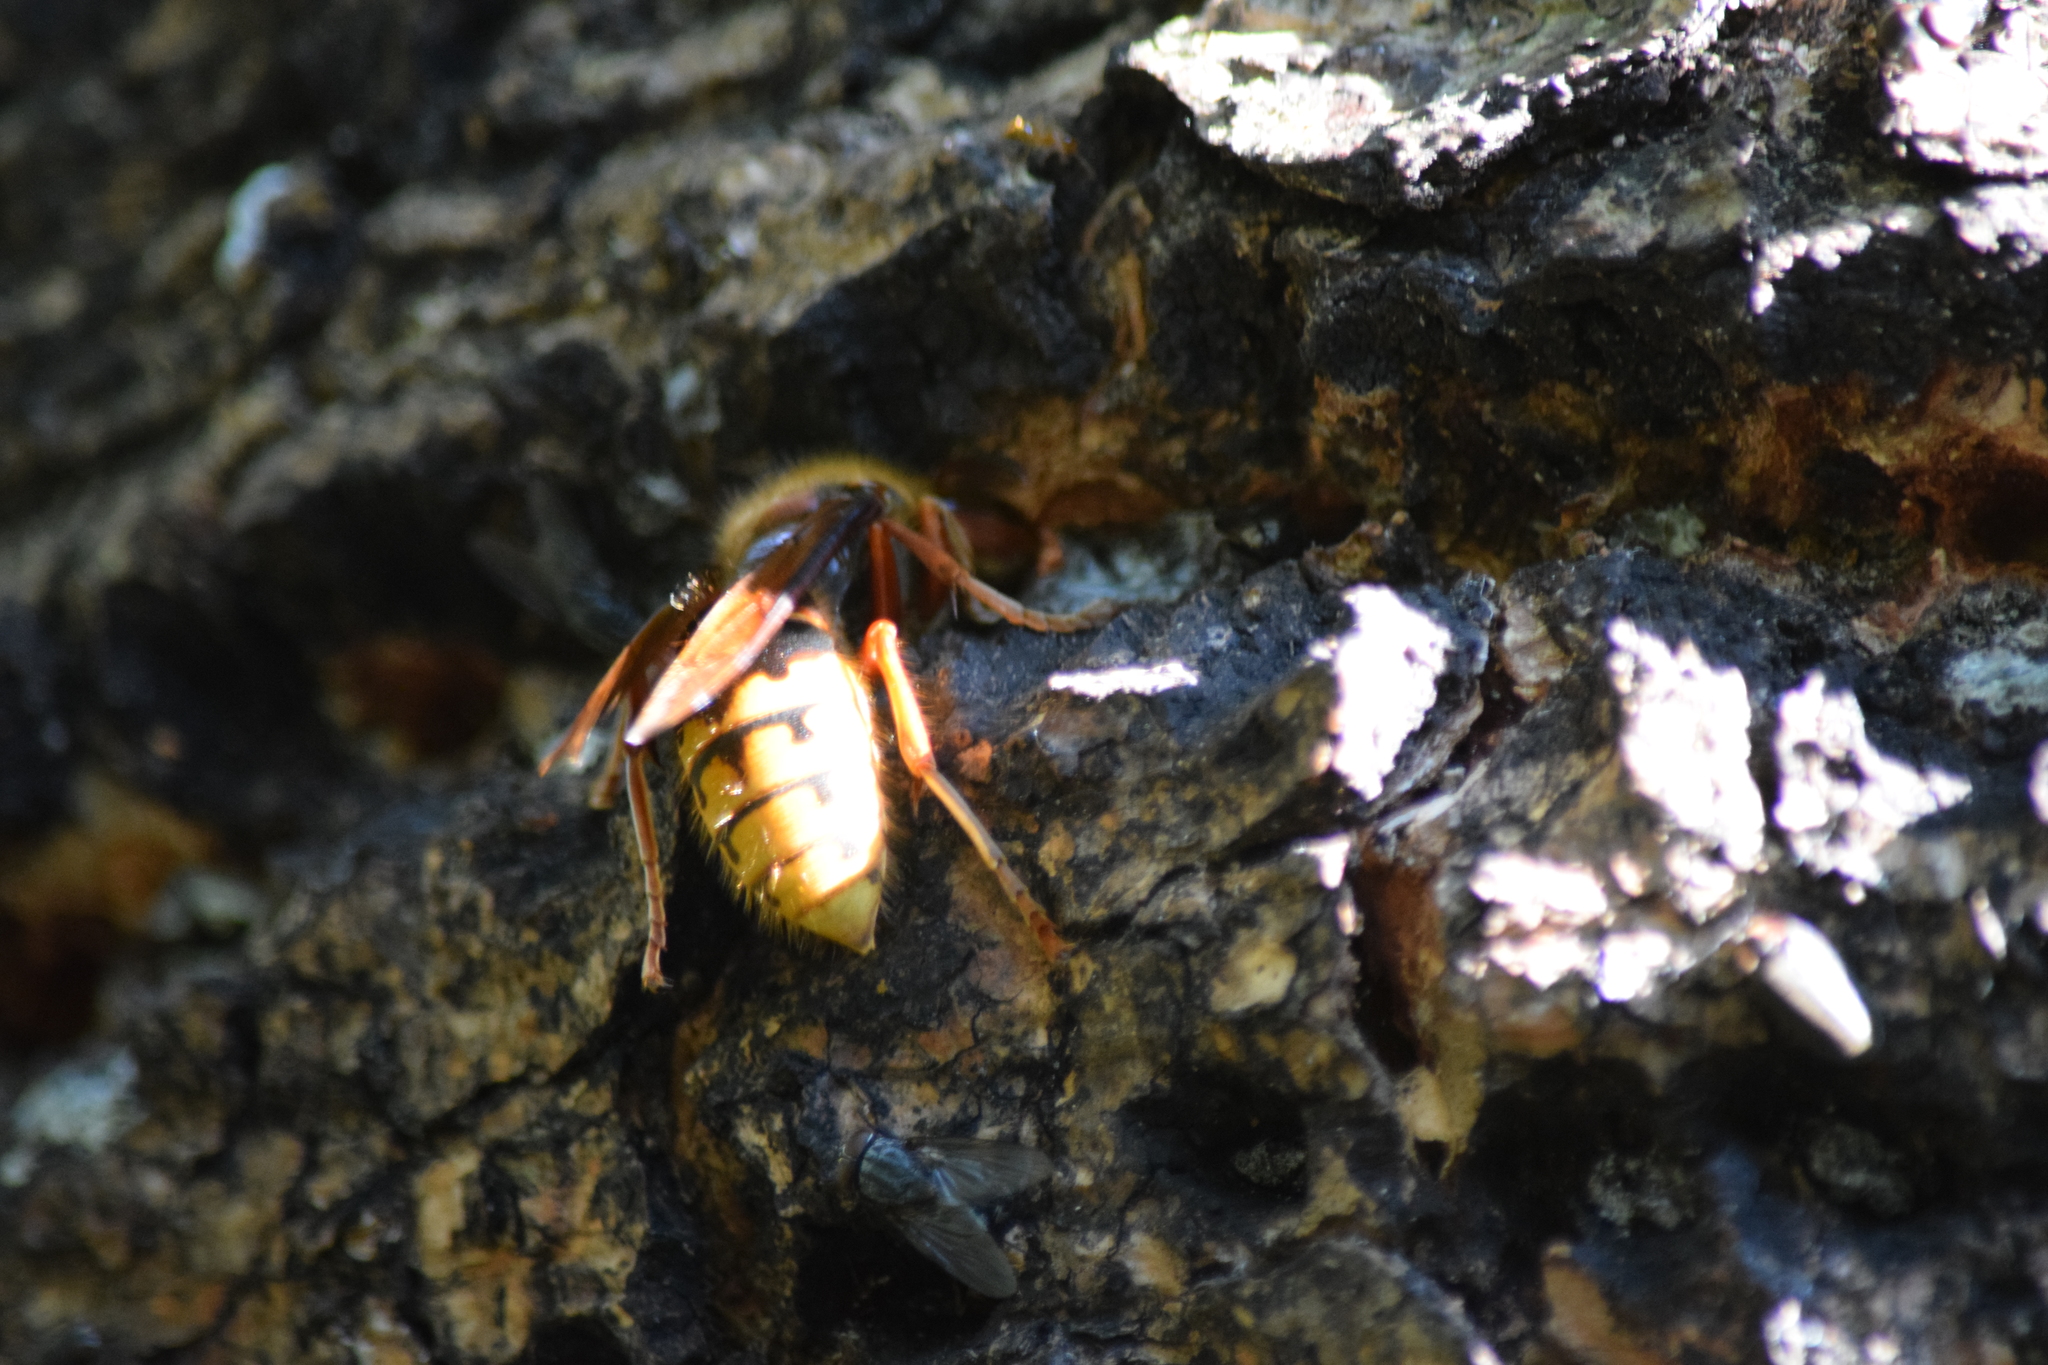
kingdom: Animalia
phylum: Arthropoda
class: Insecta
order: Hymenoptera
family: Vespidae
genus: Vespa
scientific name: Vespa crabro
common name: Hornet
